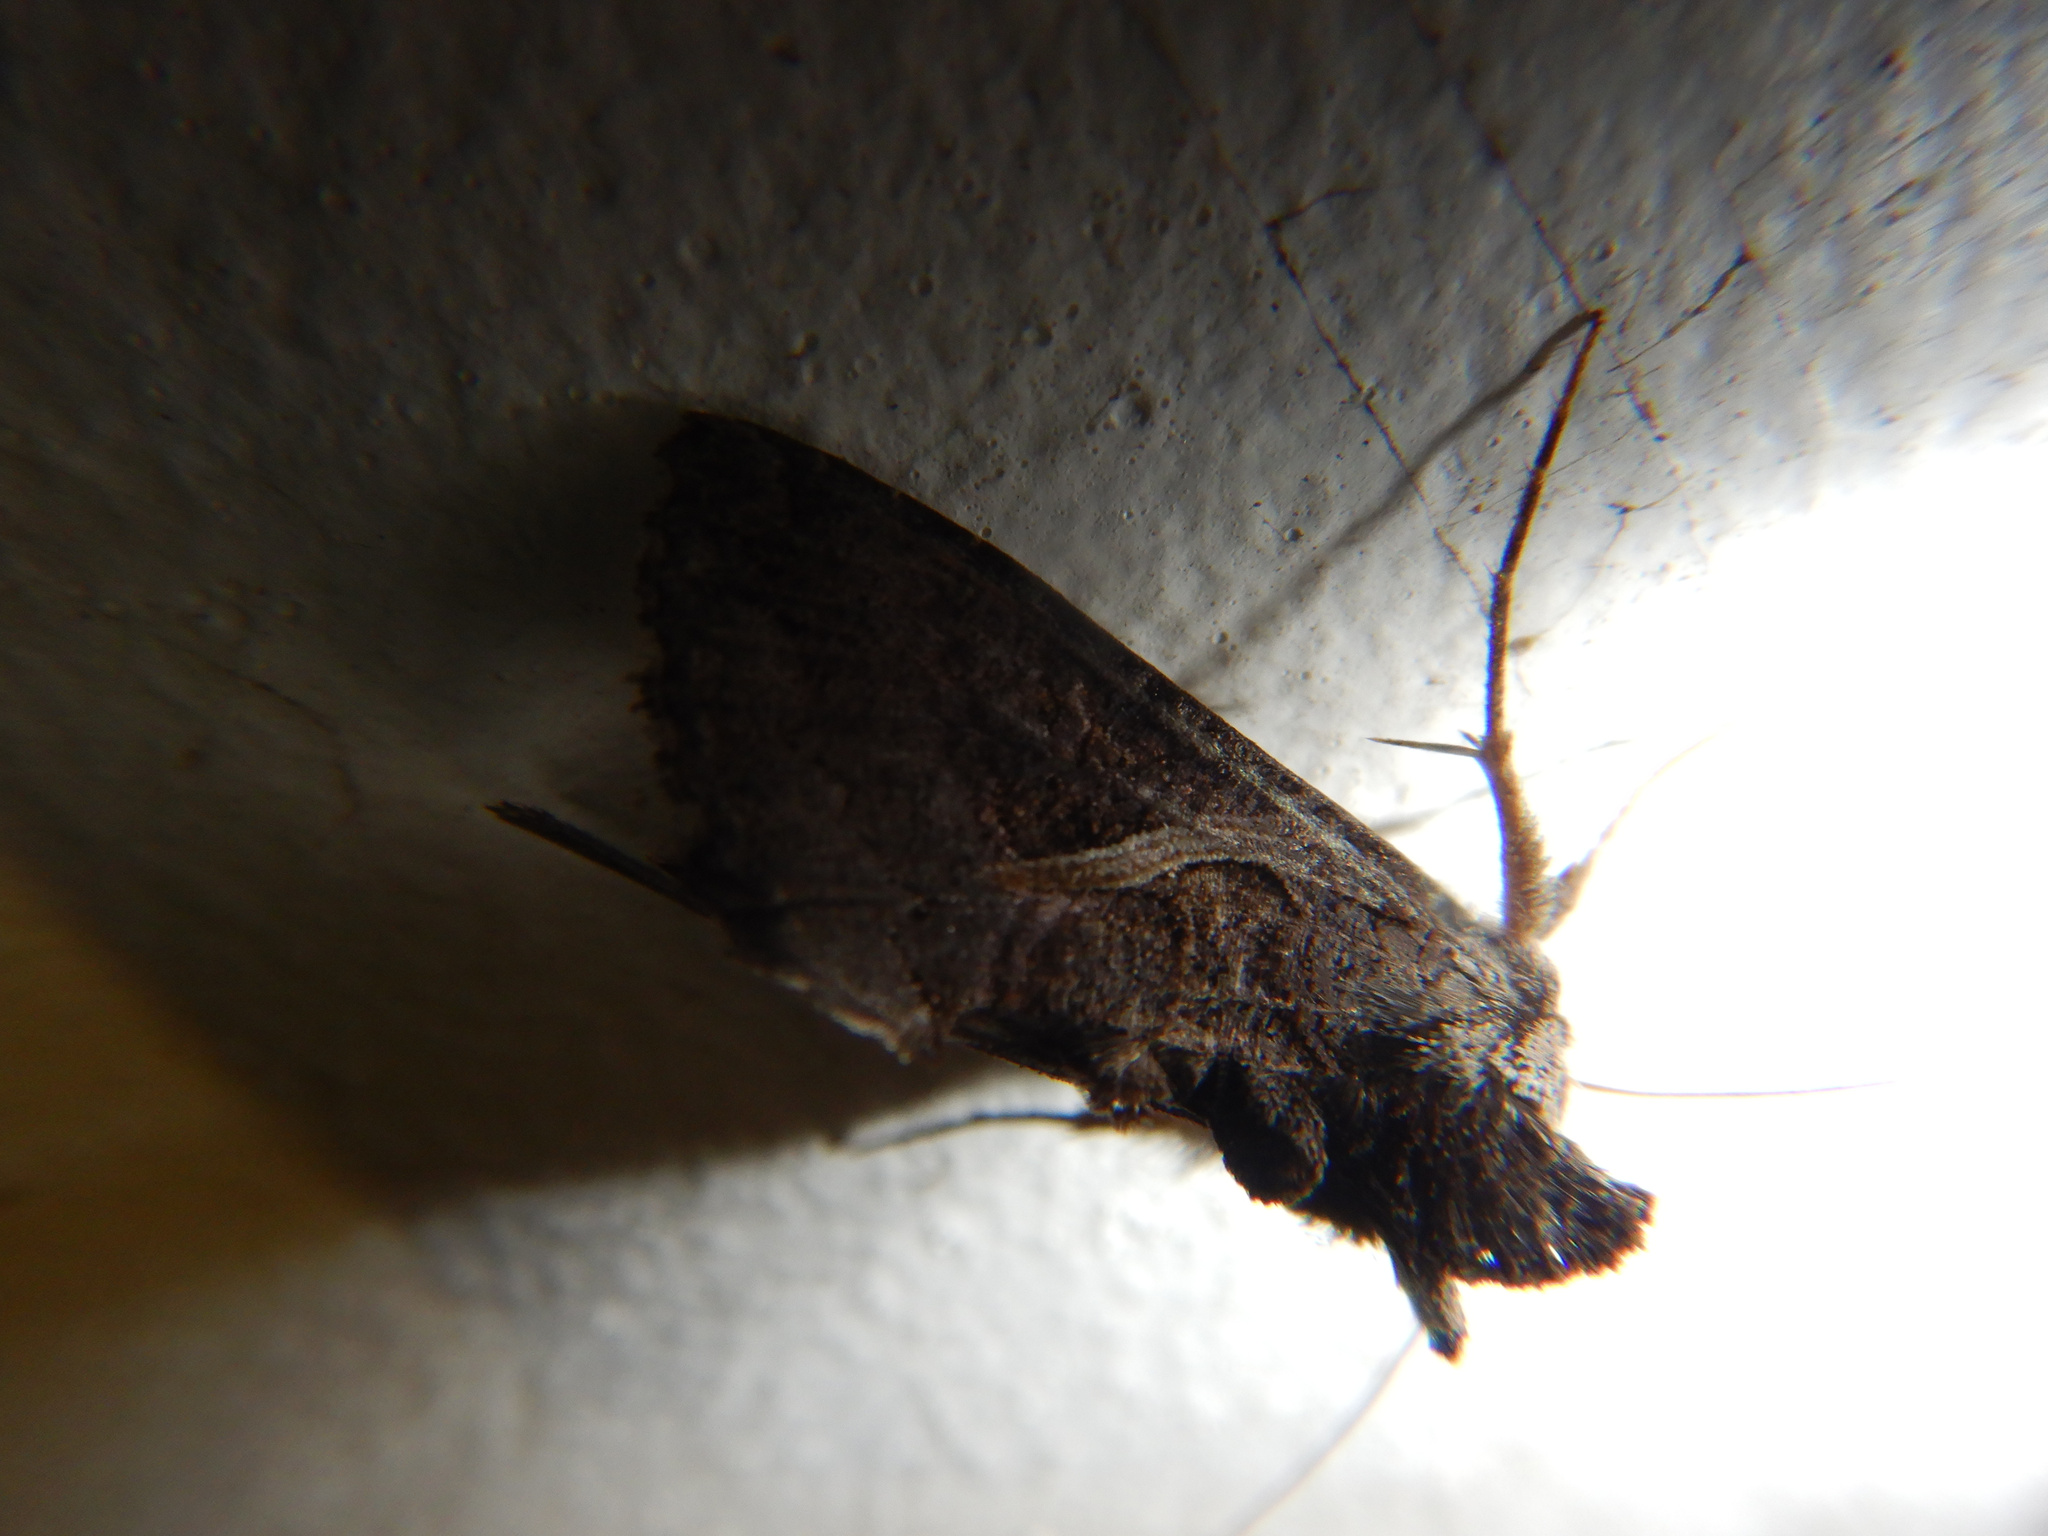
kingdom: Animalia
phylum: Arthropoda
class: Insecta
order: Lepidoptera
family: Noctuidae
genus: Ctenoplusia
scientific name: Ctenoplusia albostriata
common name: Moth
